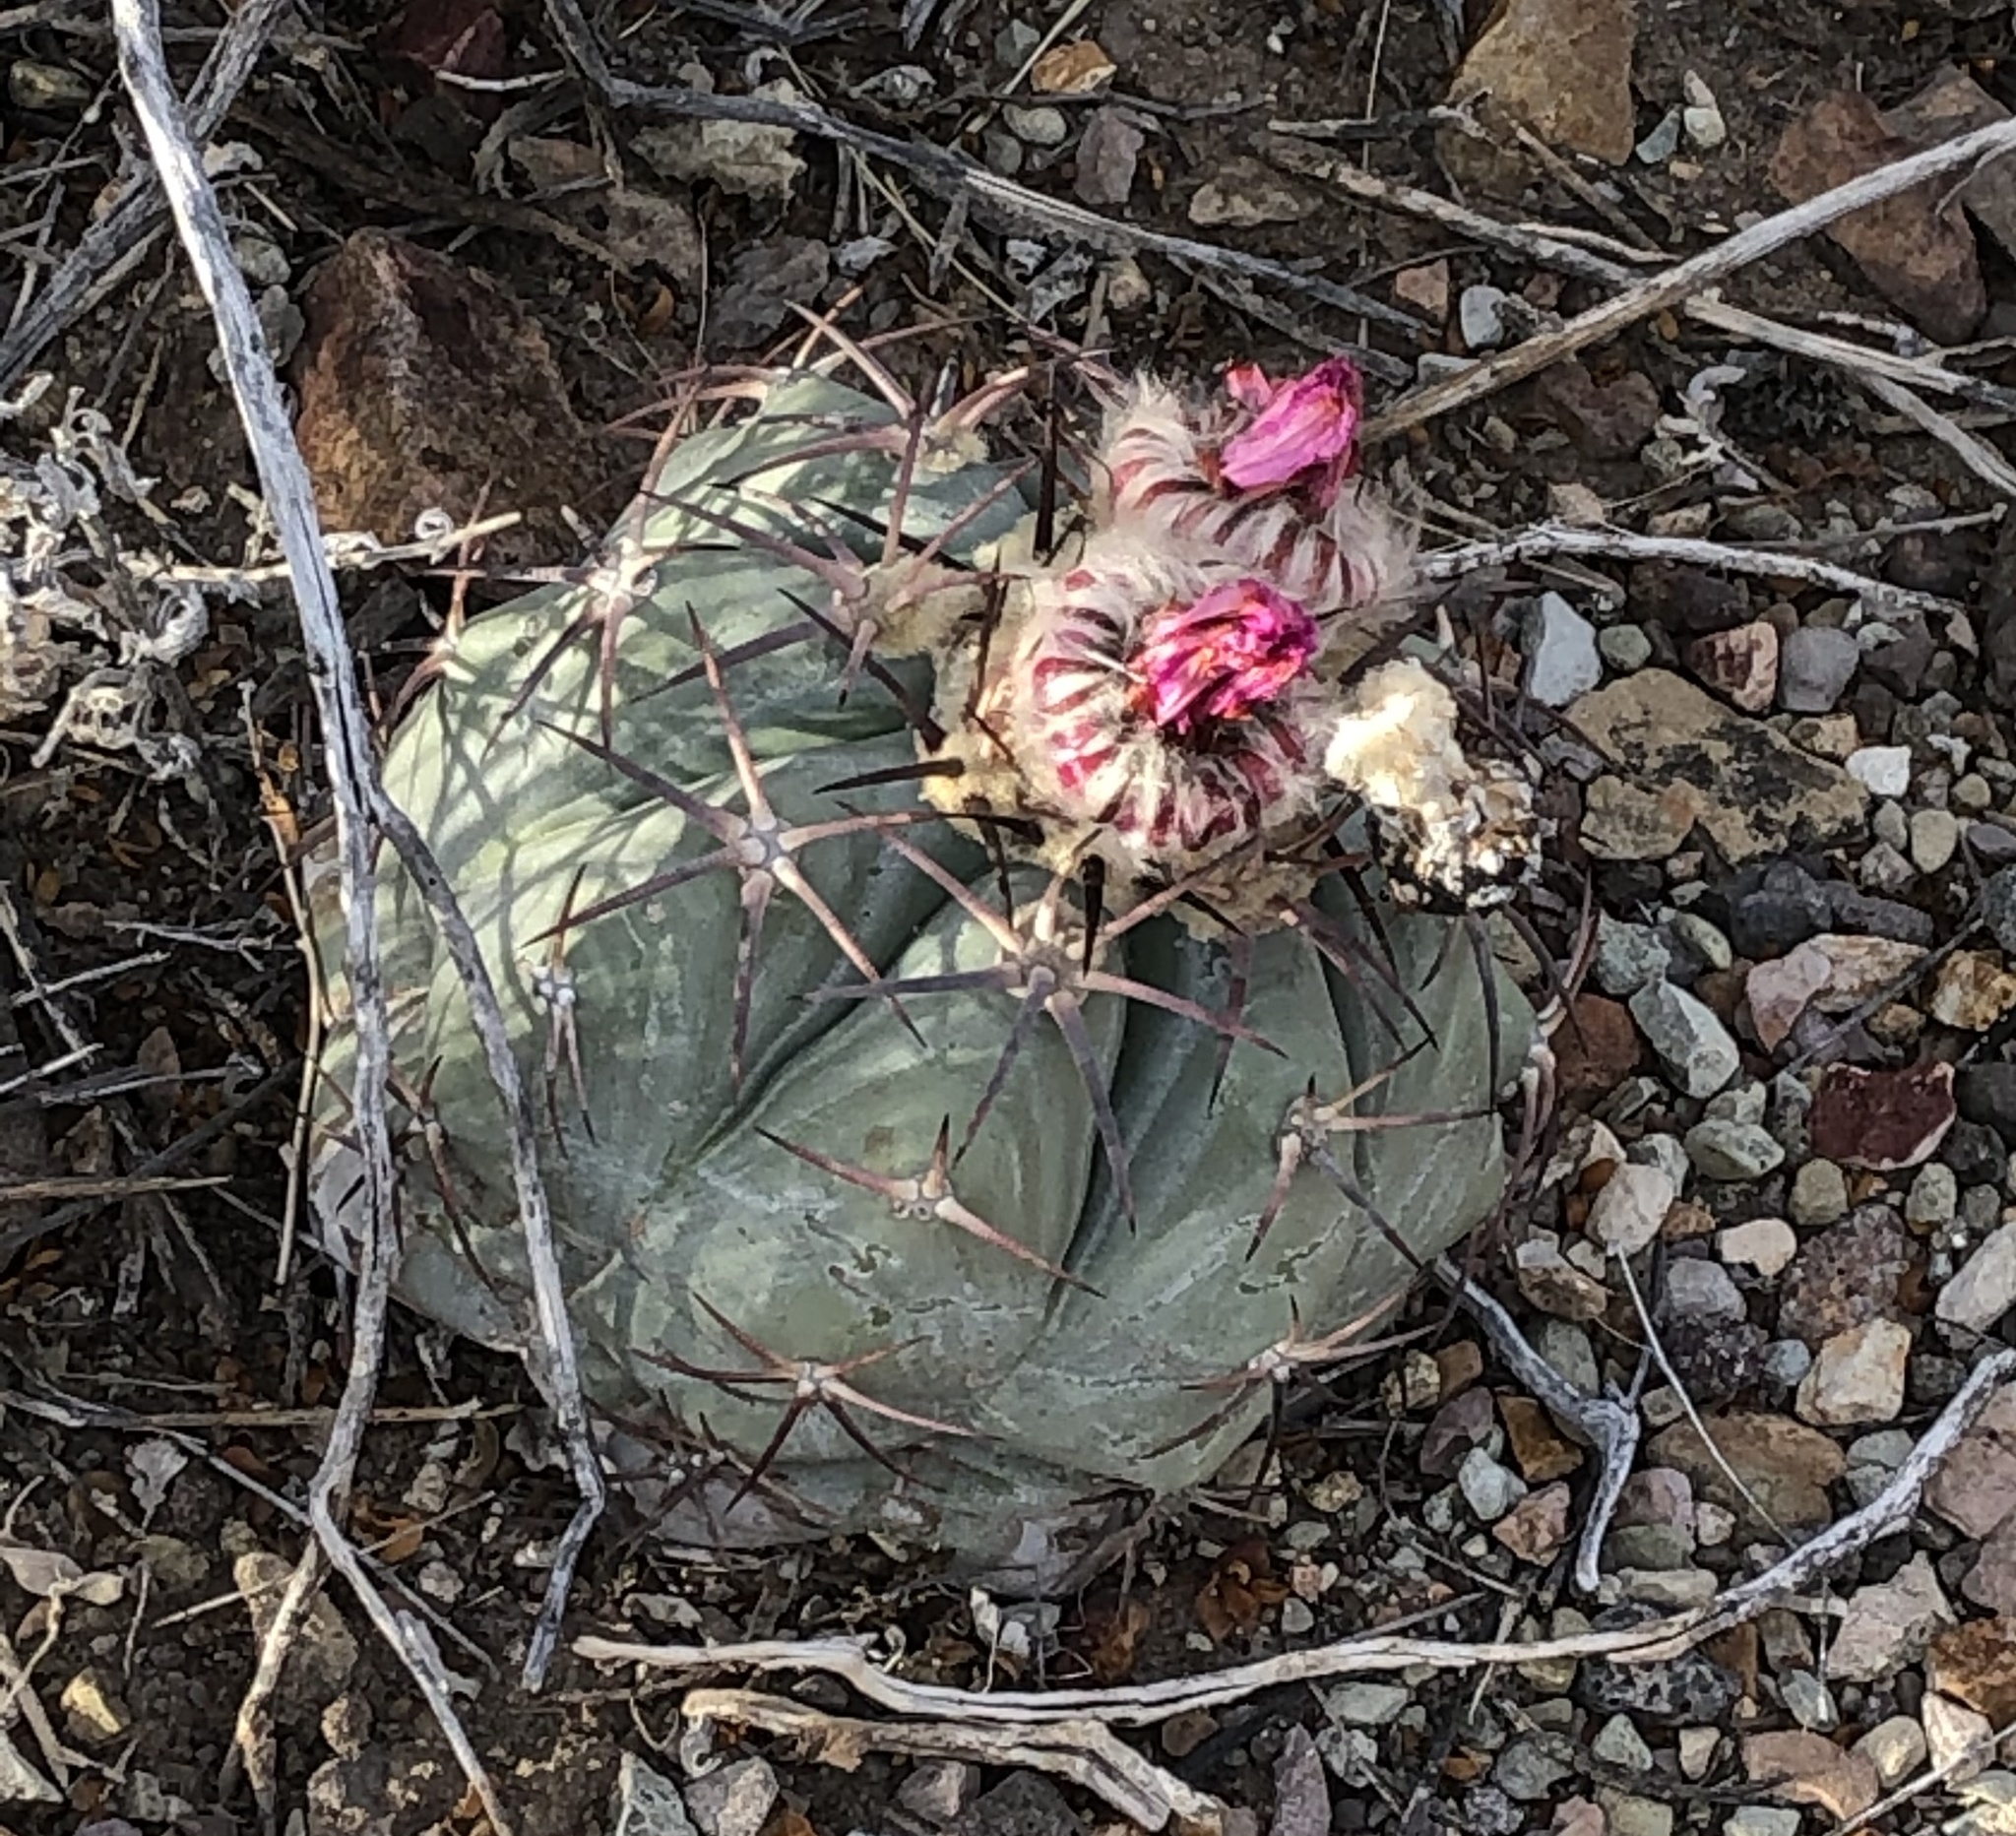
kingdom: Plantae
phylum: Tracheophyta
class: Magnoliopsida
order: Caryophyllales
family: Cactaceae
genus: Echinocactus
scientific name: Echinocactus horizonthalonius
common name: Devilshead
